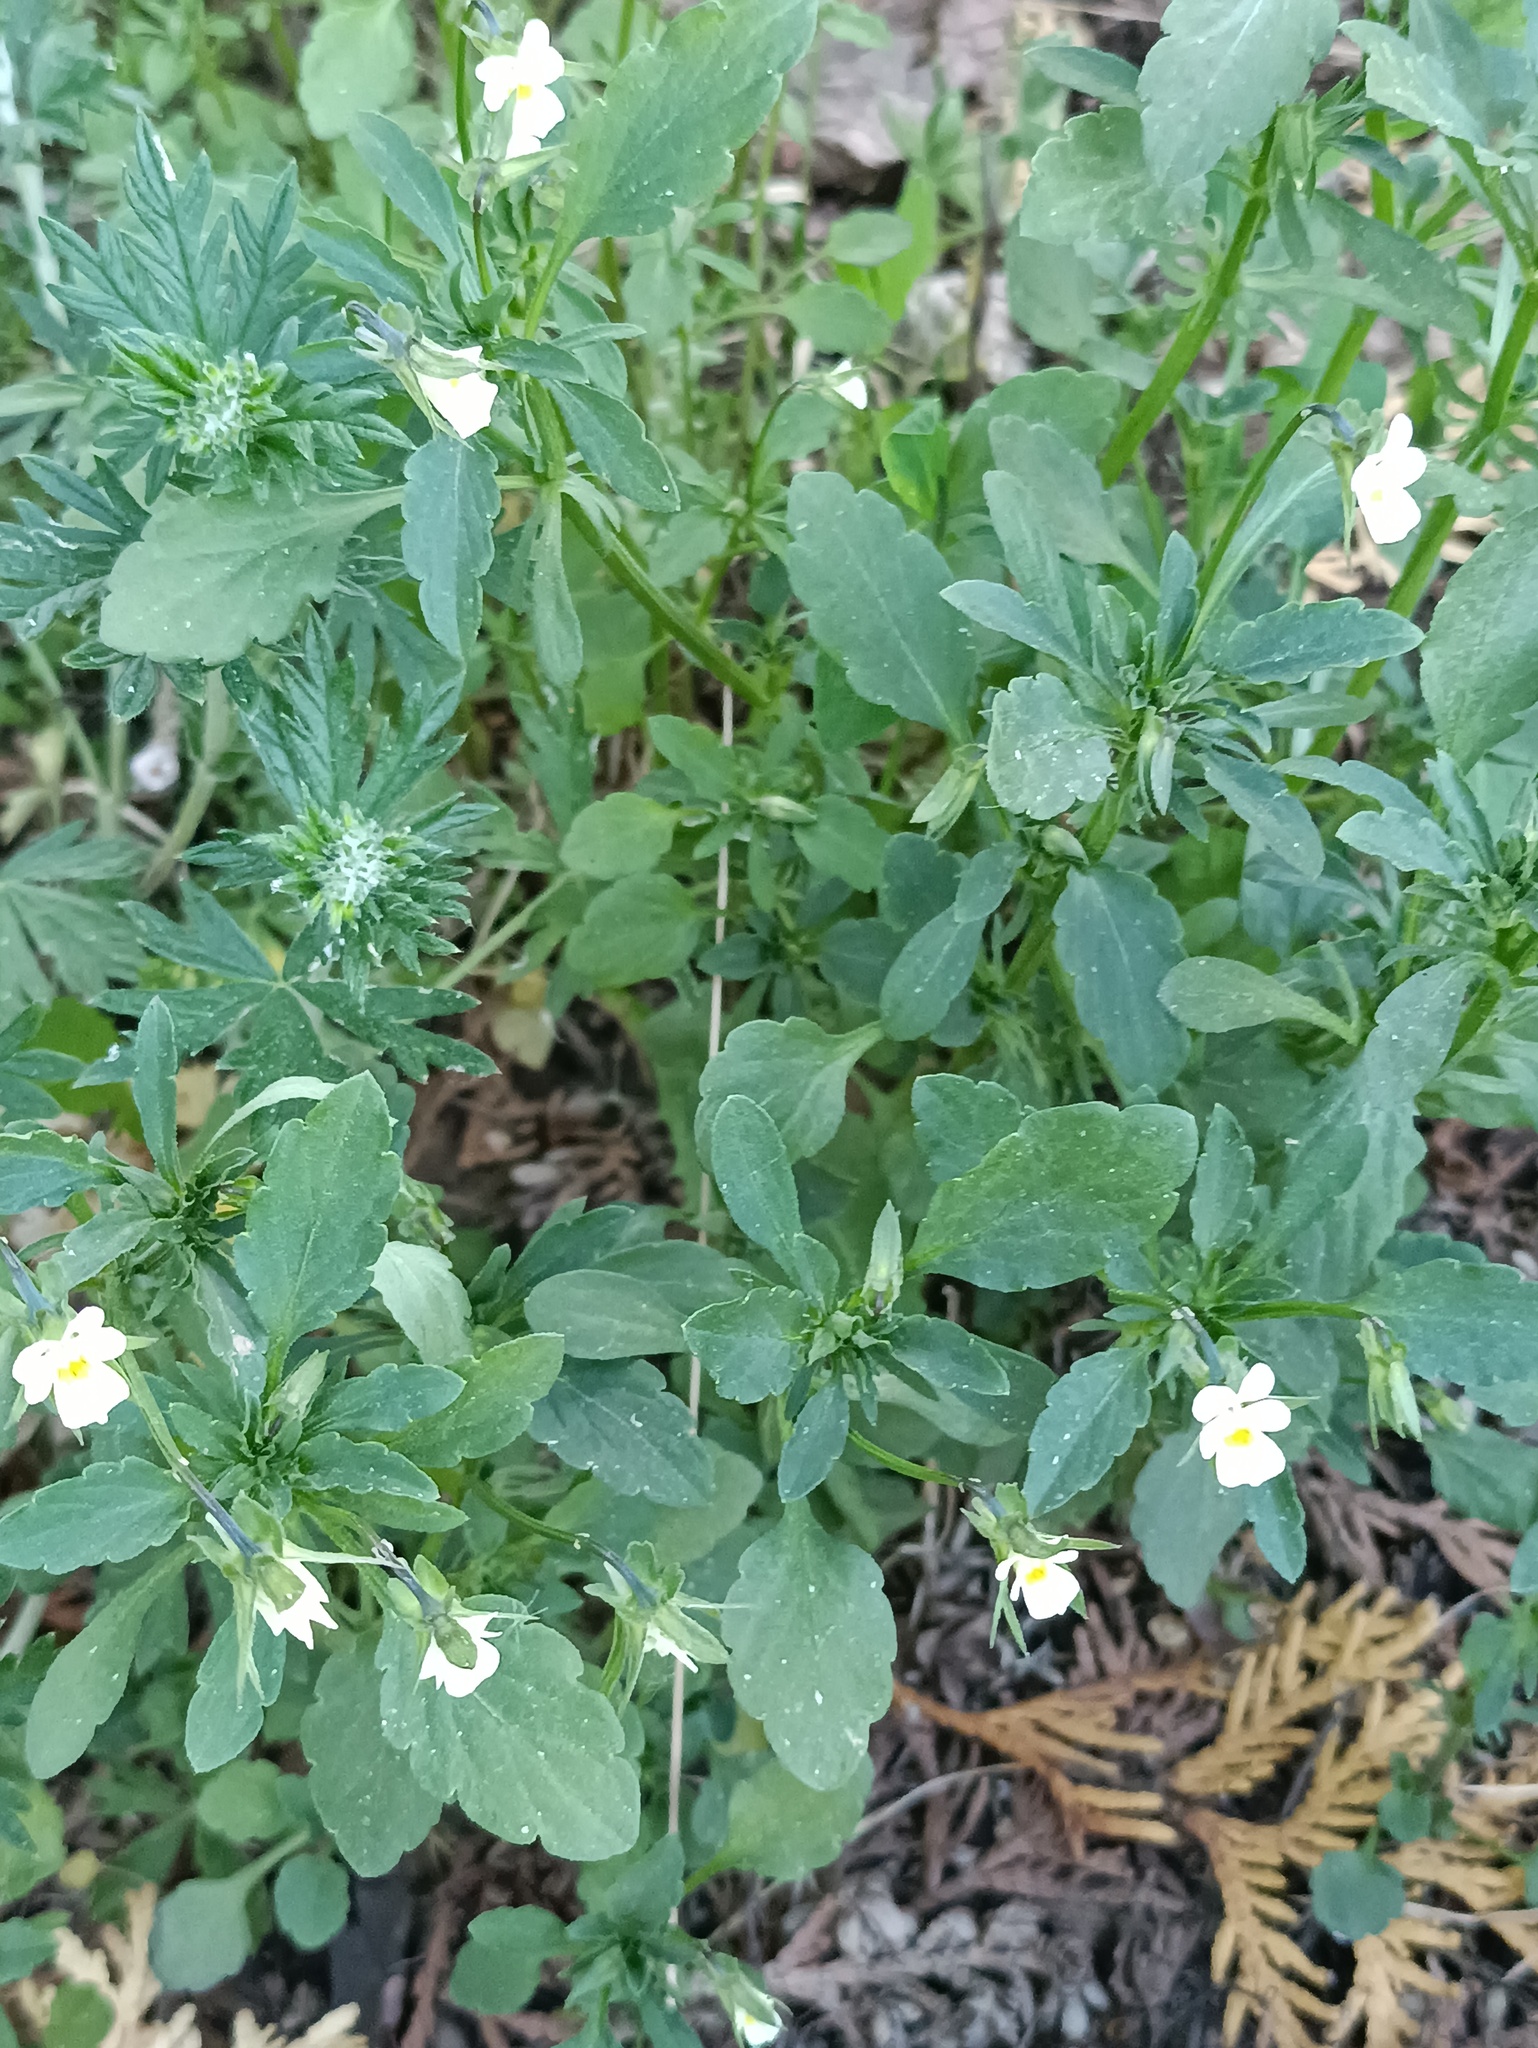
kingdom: Plantae
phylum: Tracheophyta
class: Magnoliopsida
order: Malpighiales
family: Violaceae
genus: Viola
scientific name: Viola arvensis
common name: Field pansy
